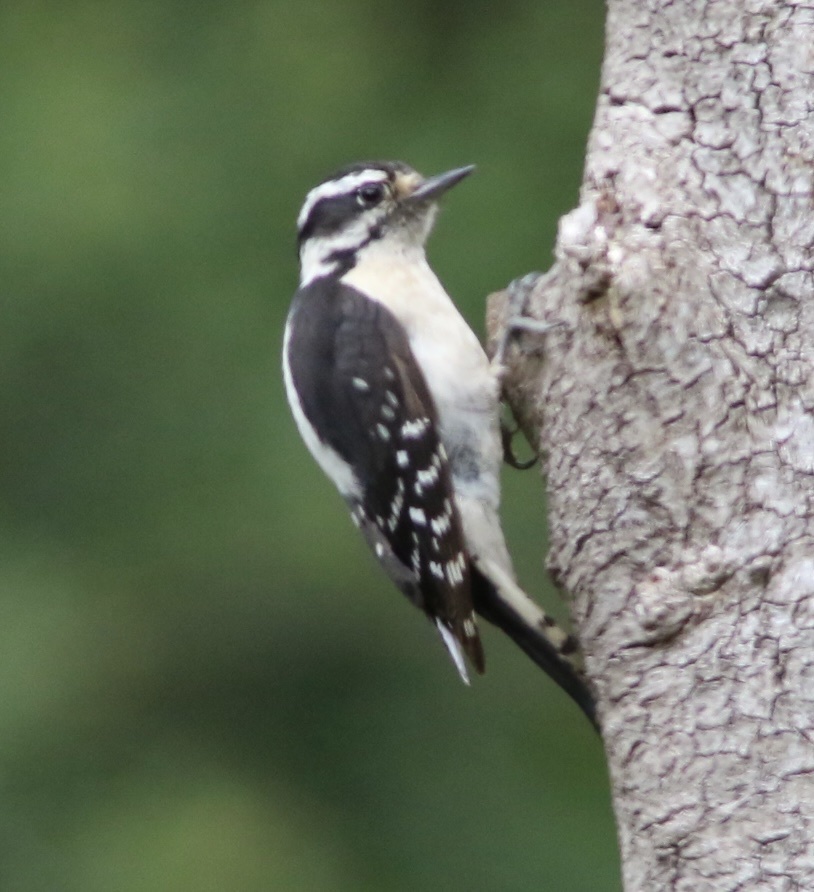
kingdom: Animalia
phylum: Chordata
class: Aves
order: Piciformes
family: Picidae
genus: Dryobates
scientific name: Dryobates pubescens
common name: Downy woodpecker
